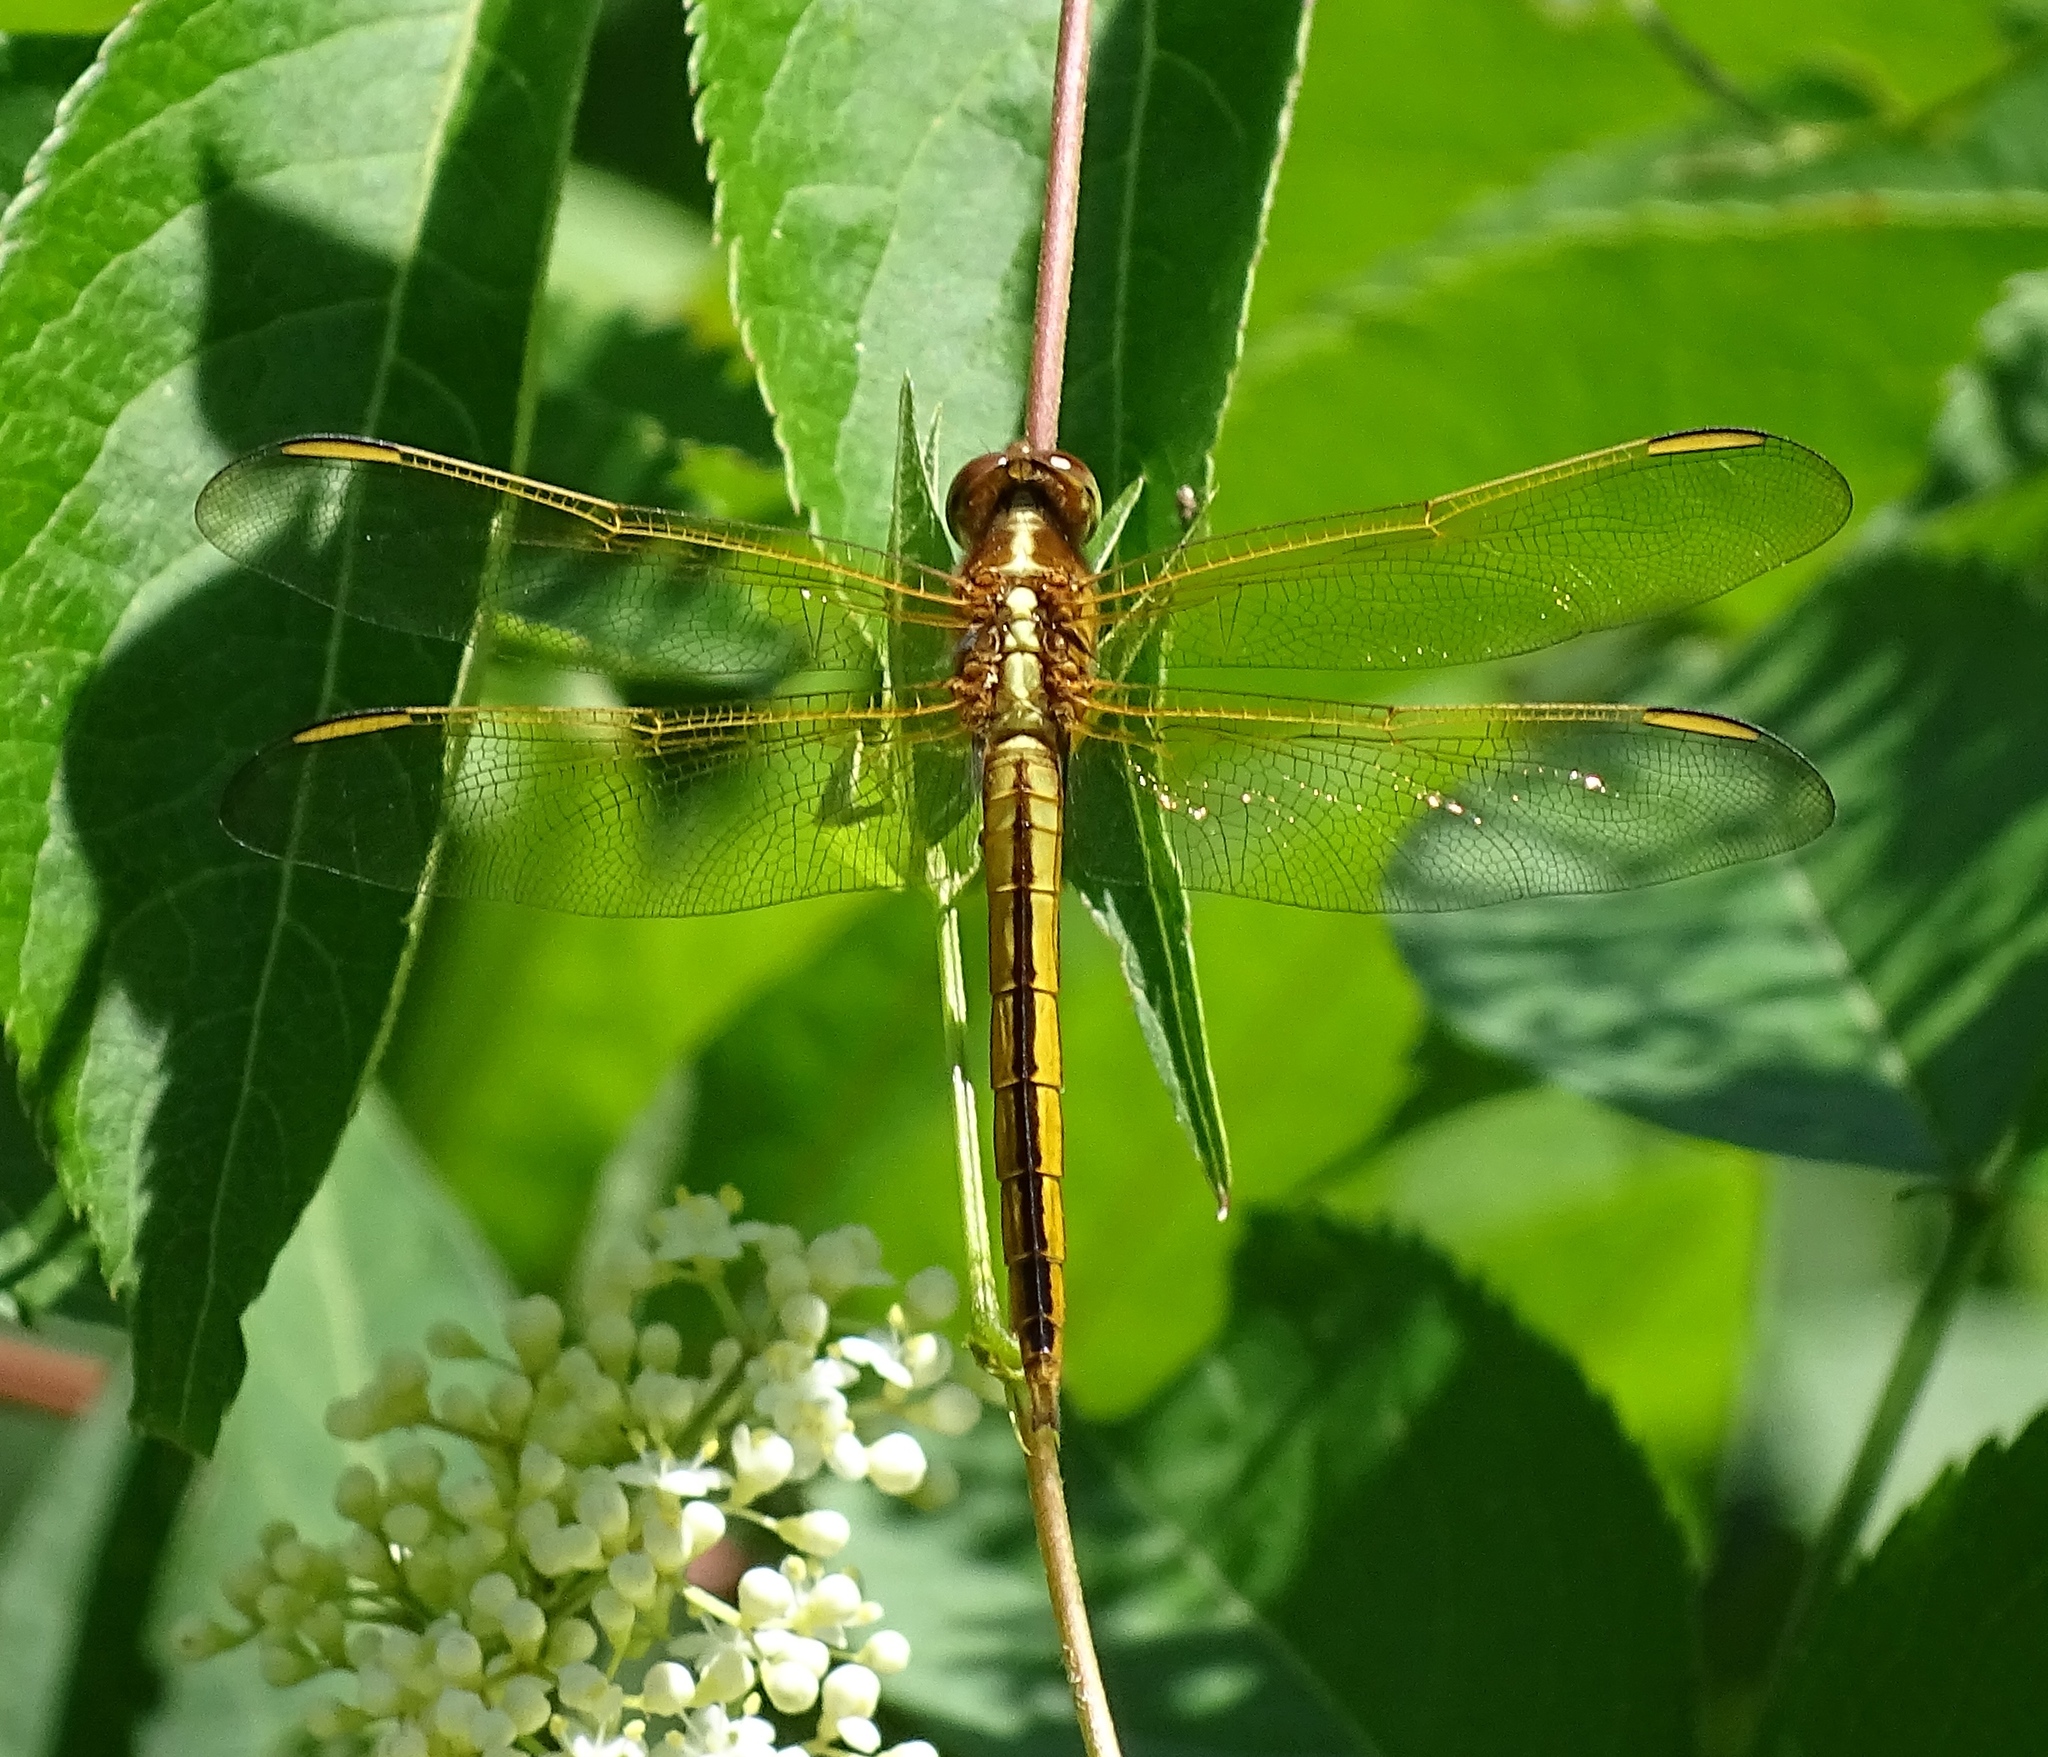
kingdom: Animalia
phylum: Arthropoda
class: Insecta
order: Odonata
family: Libellulidae
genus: Libellula
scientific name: Libellula needhami
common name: Needham's skimmer
